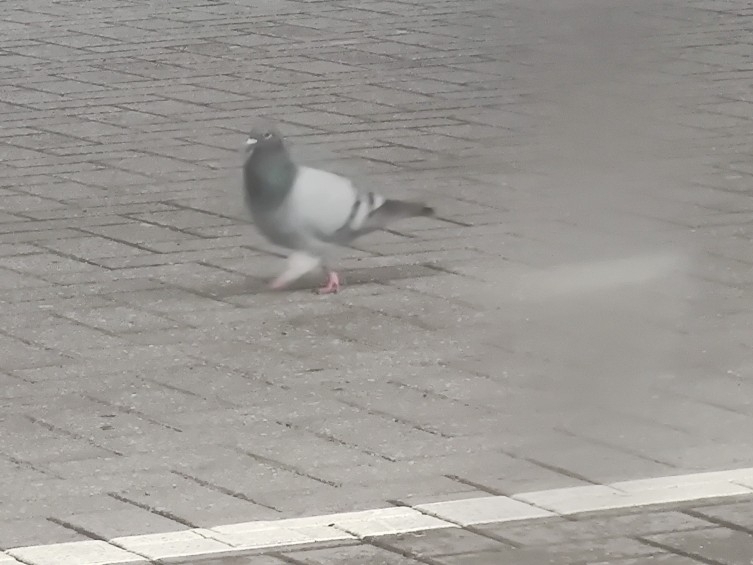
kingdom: Animalia
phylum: Chordata
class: Aves
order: Columbiformes
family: Columbidae
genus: Columba
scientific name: Columba livia
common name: Rock pigeon
